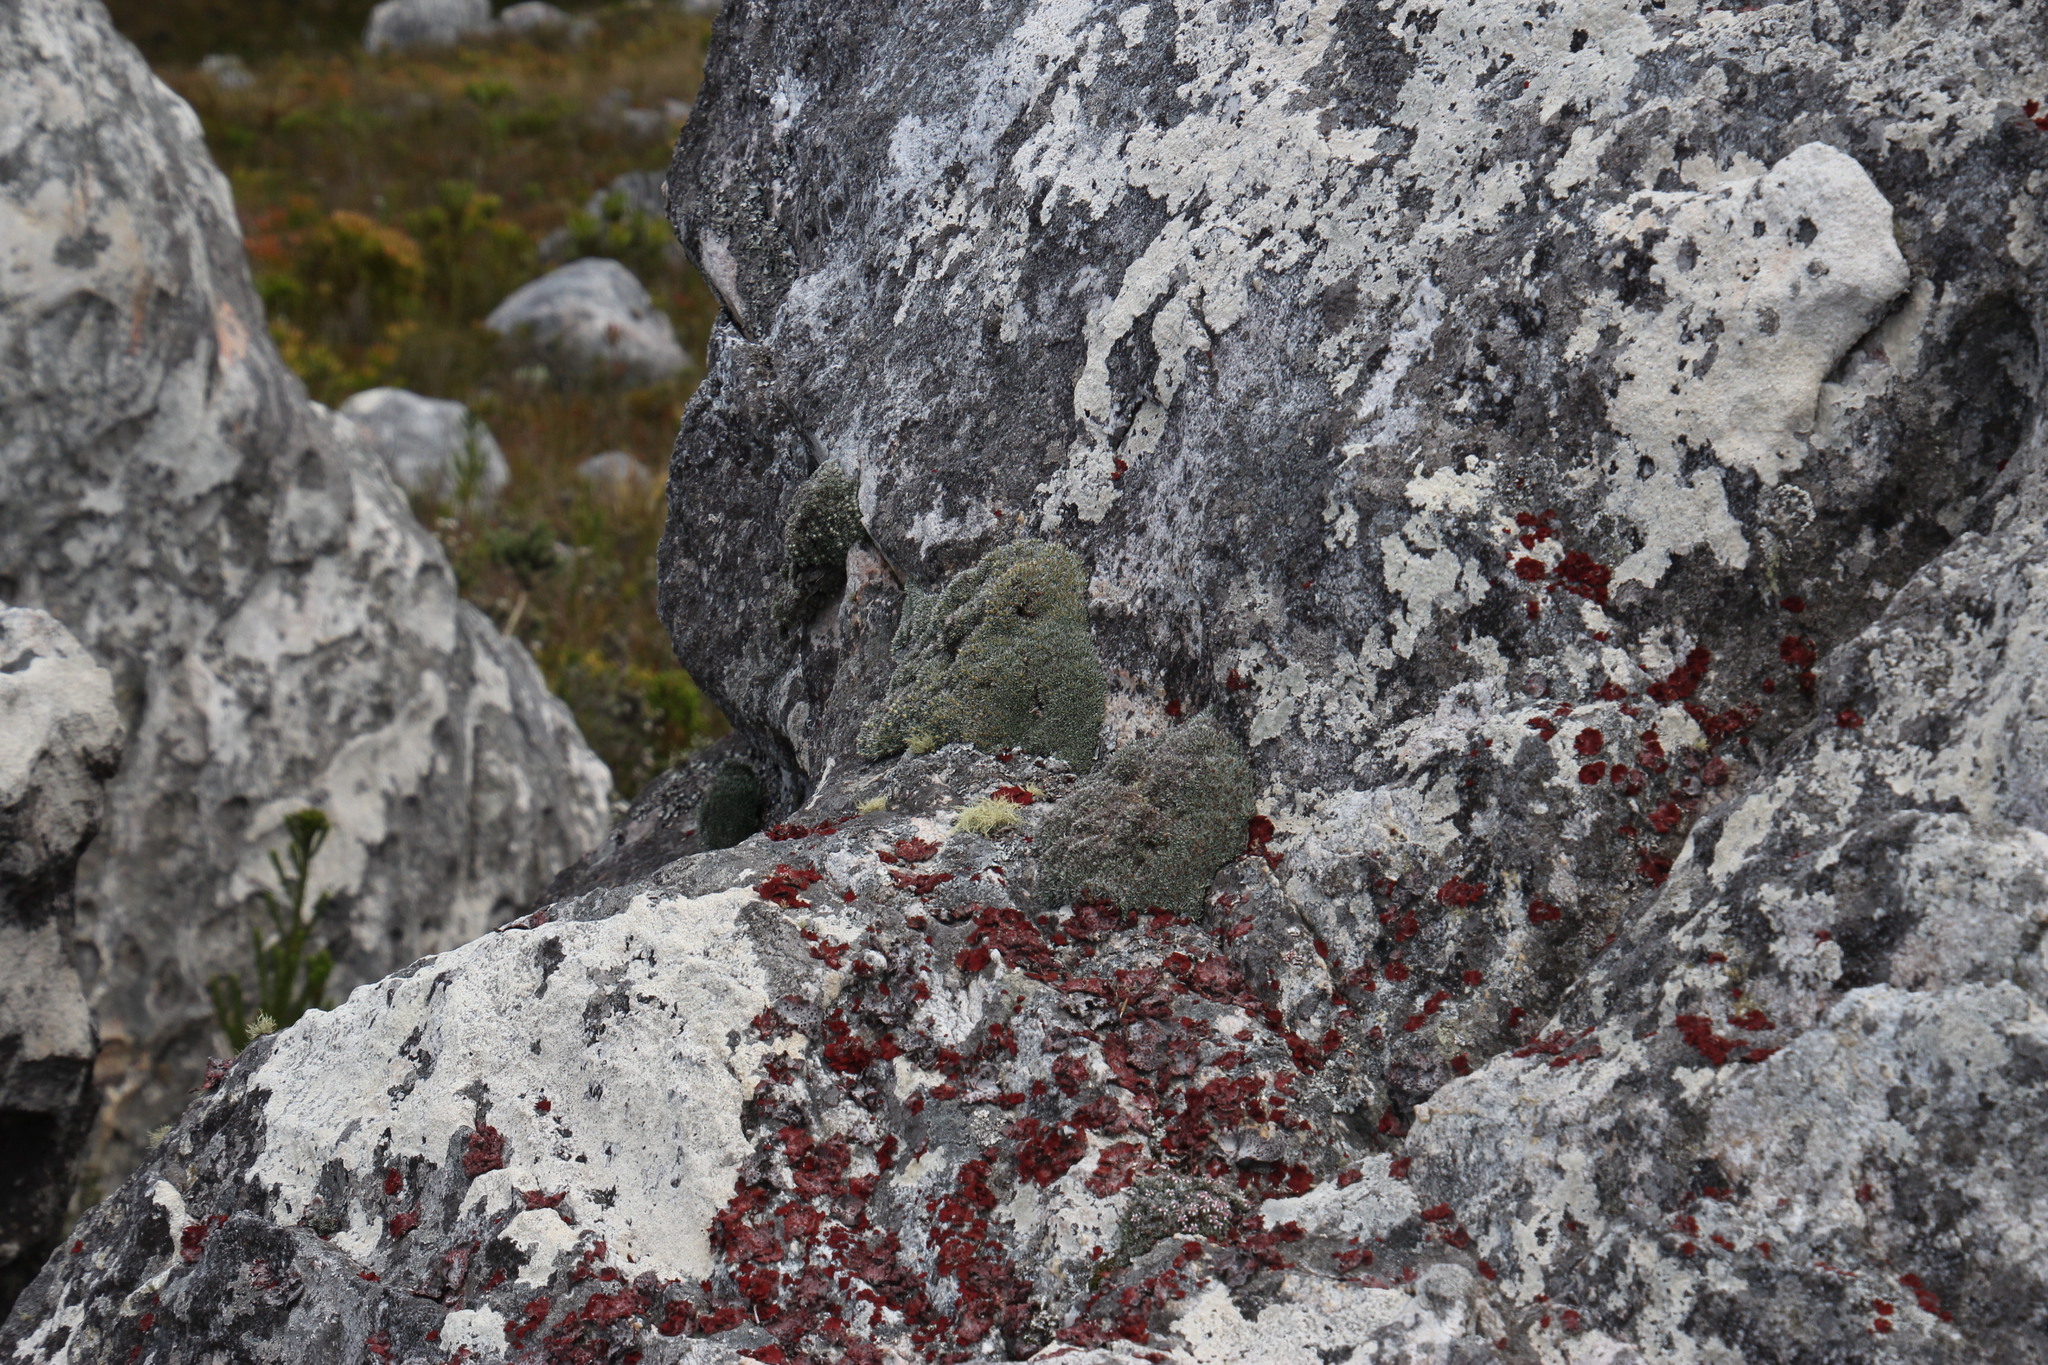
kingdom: Plantae
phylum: Tracheophyta
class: Magnoliopsida
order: Asterales
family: Asteraceae
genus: Muscosomorphe
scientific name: Muscosomorphe aretioides
